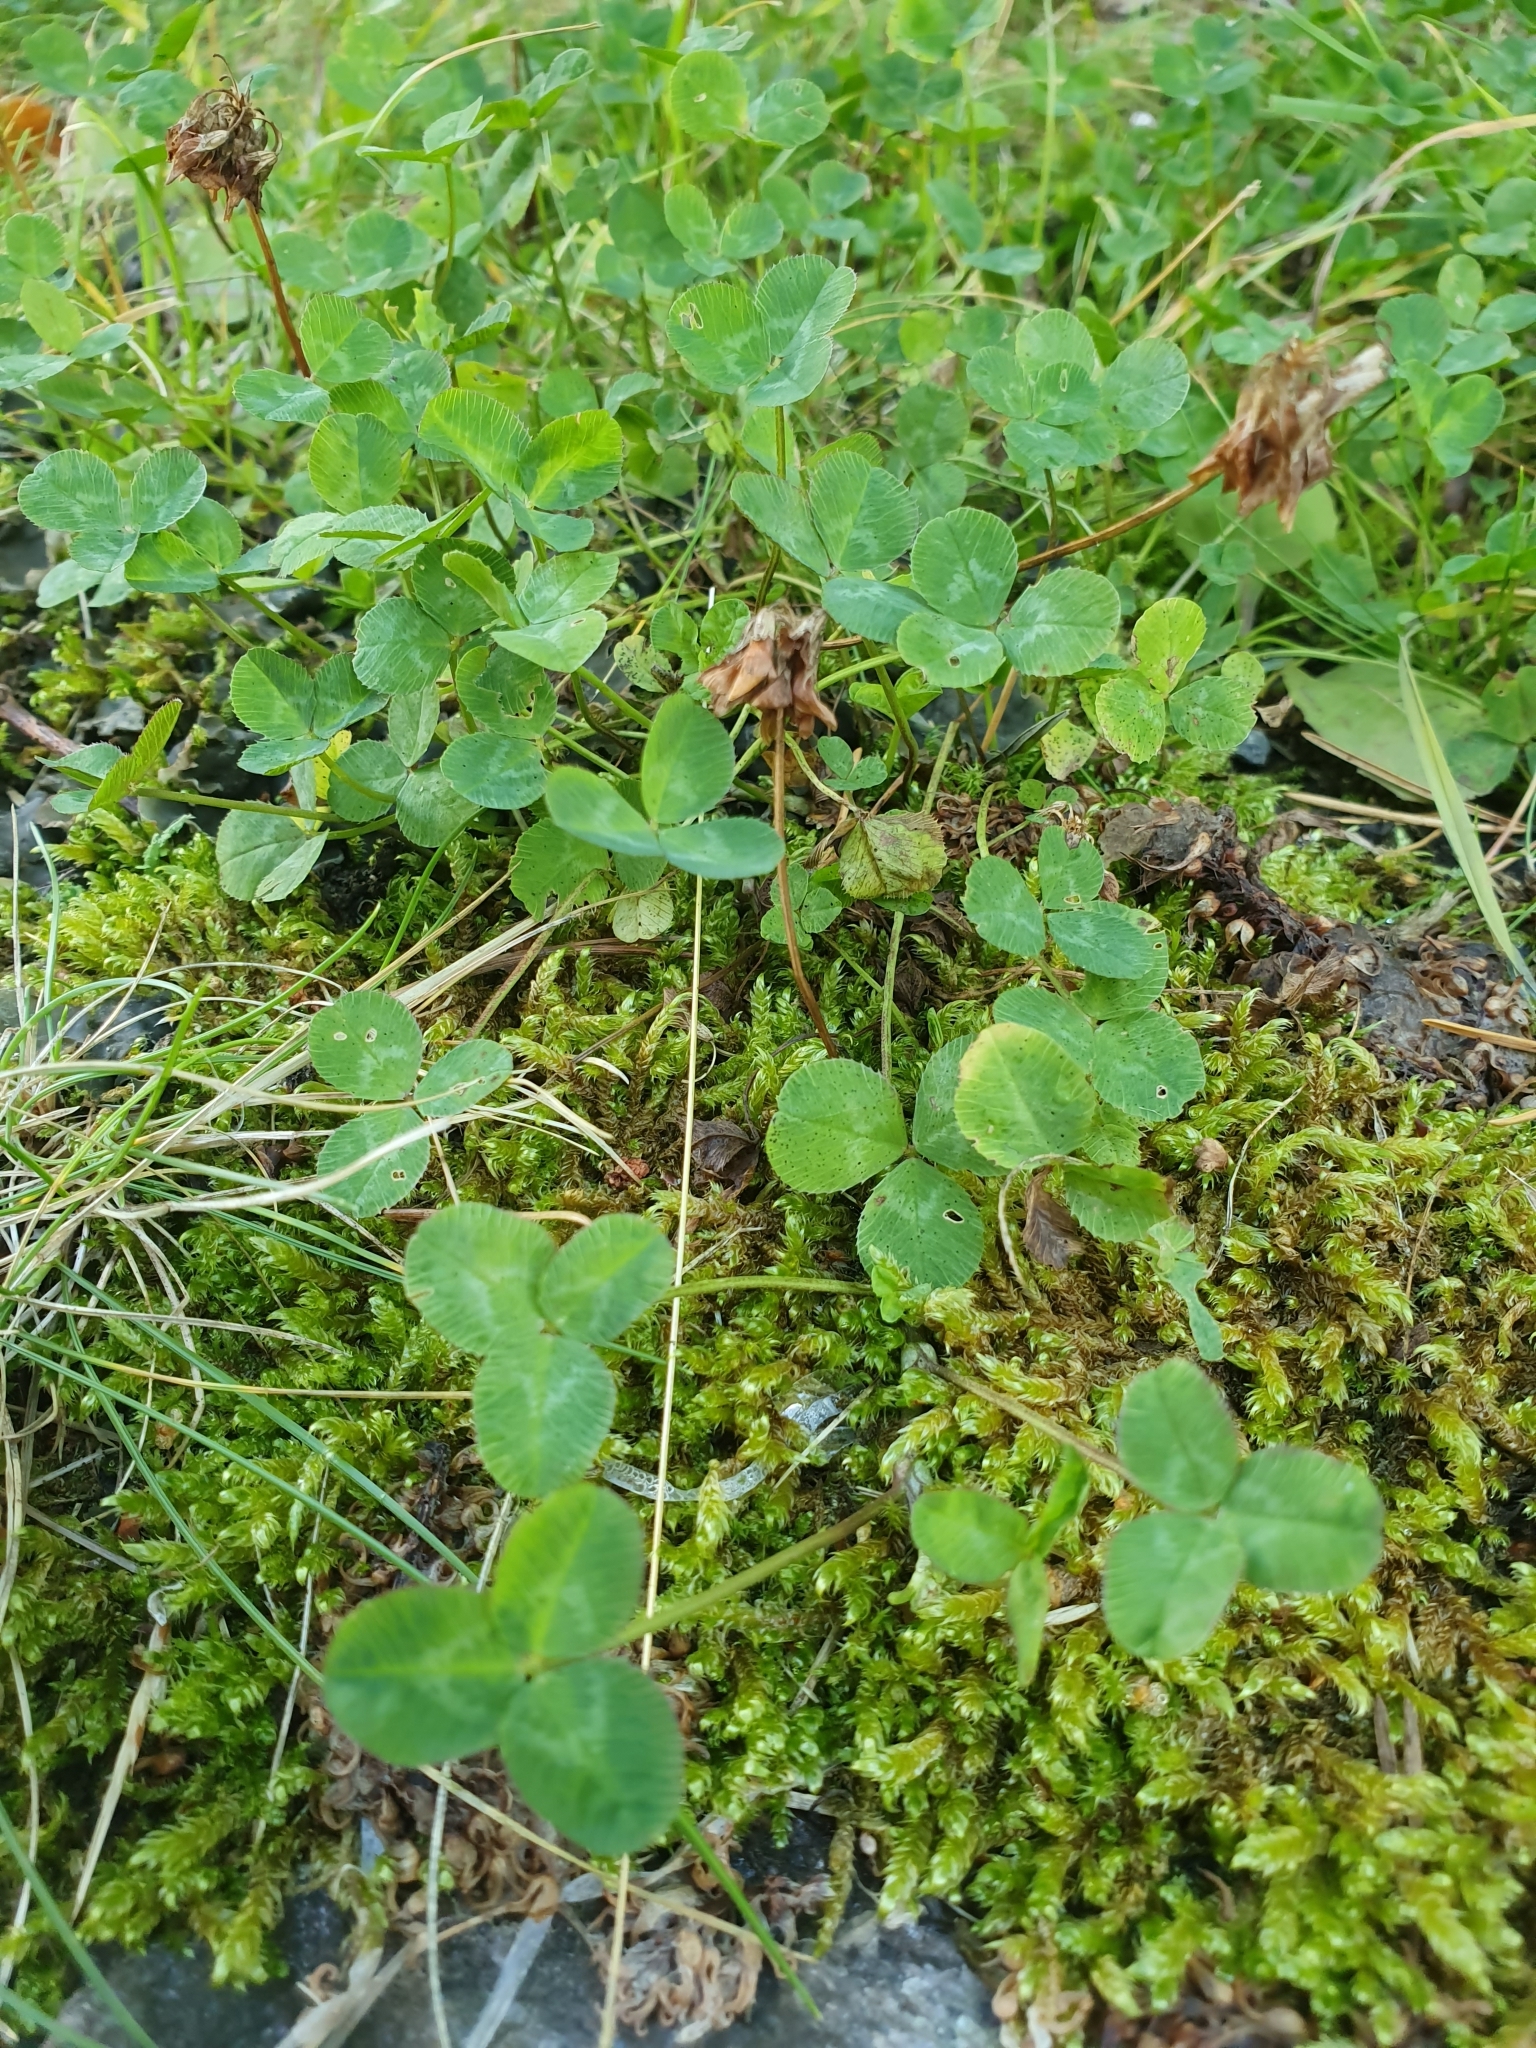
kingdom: Plantae
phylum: Tracheophyta
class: Magnoliopsida
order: Fabales
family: Fabaceae
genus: Trifolium
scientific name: Trifolium repens
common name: White clover
